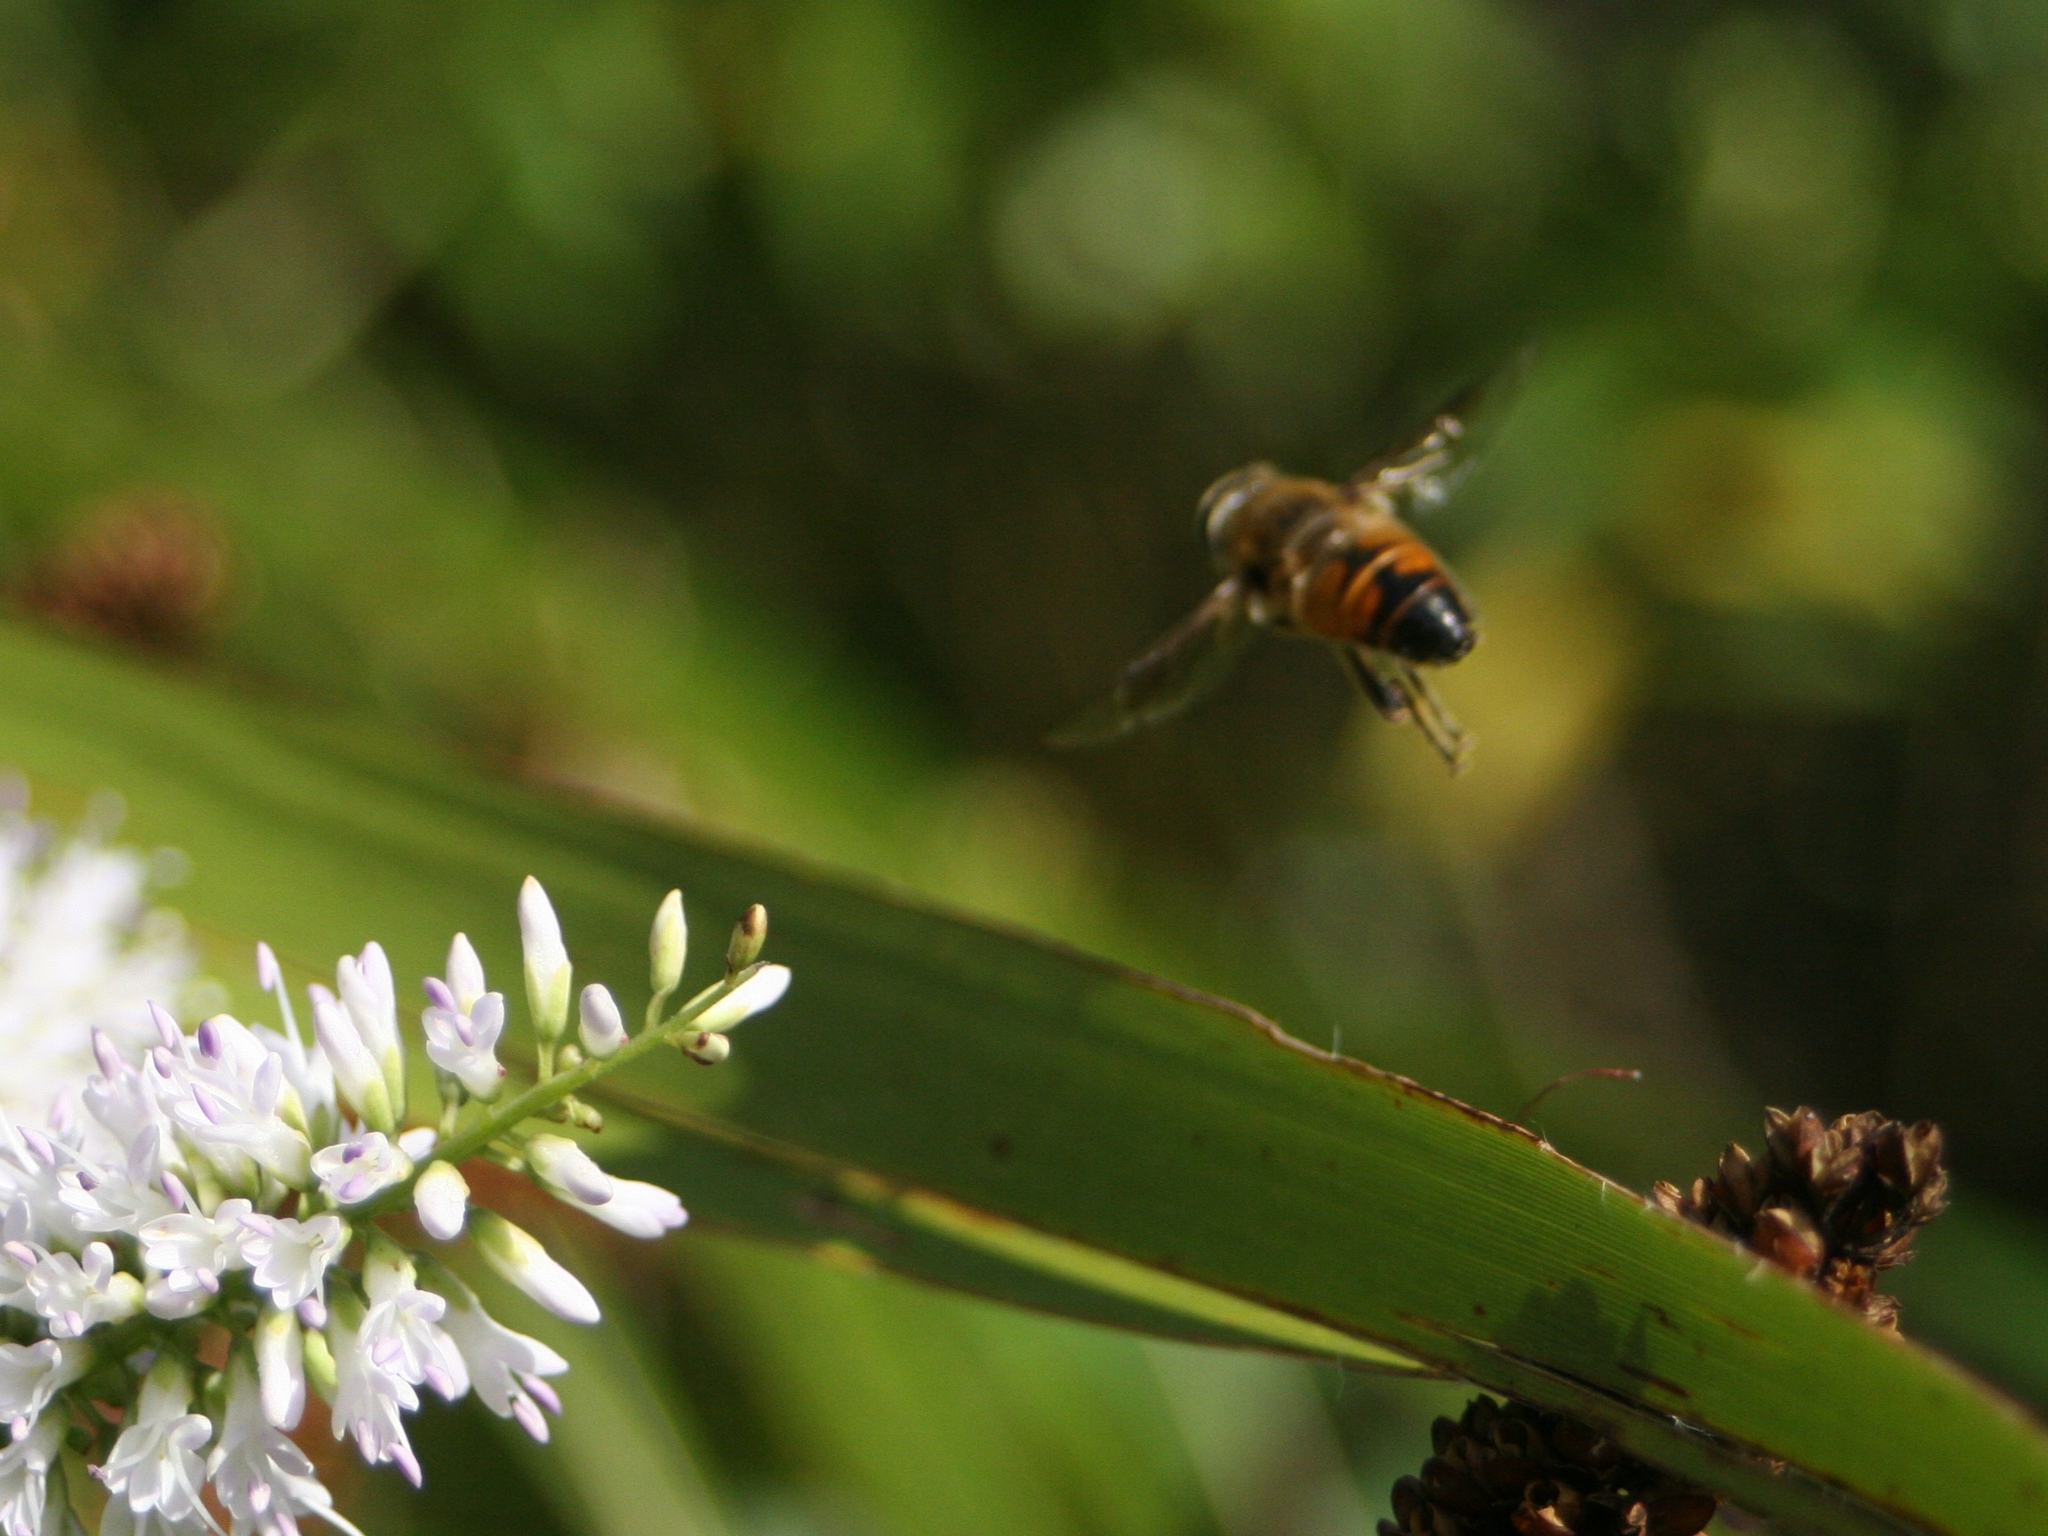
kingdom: Animalia
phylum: Arthropoda
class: Insecta
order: Diptera
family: Syrphidae
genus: Eristalis
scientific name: Eristalis tenax
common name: Drone fly
